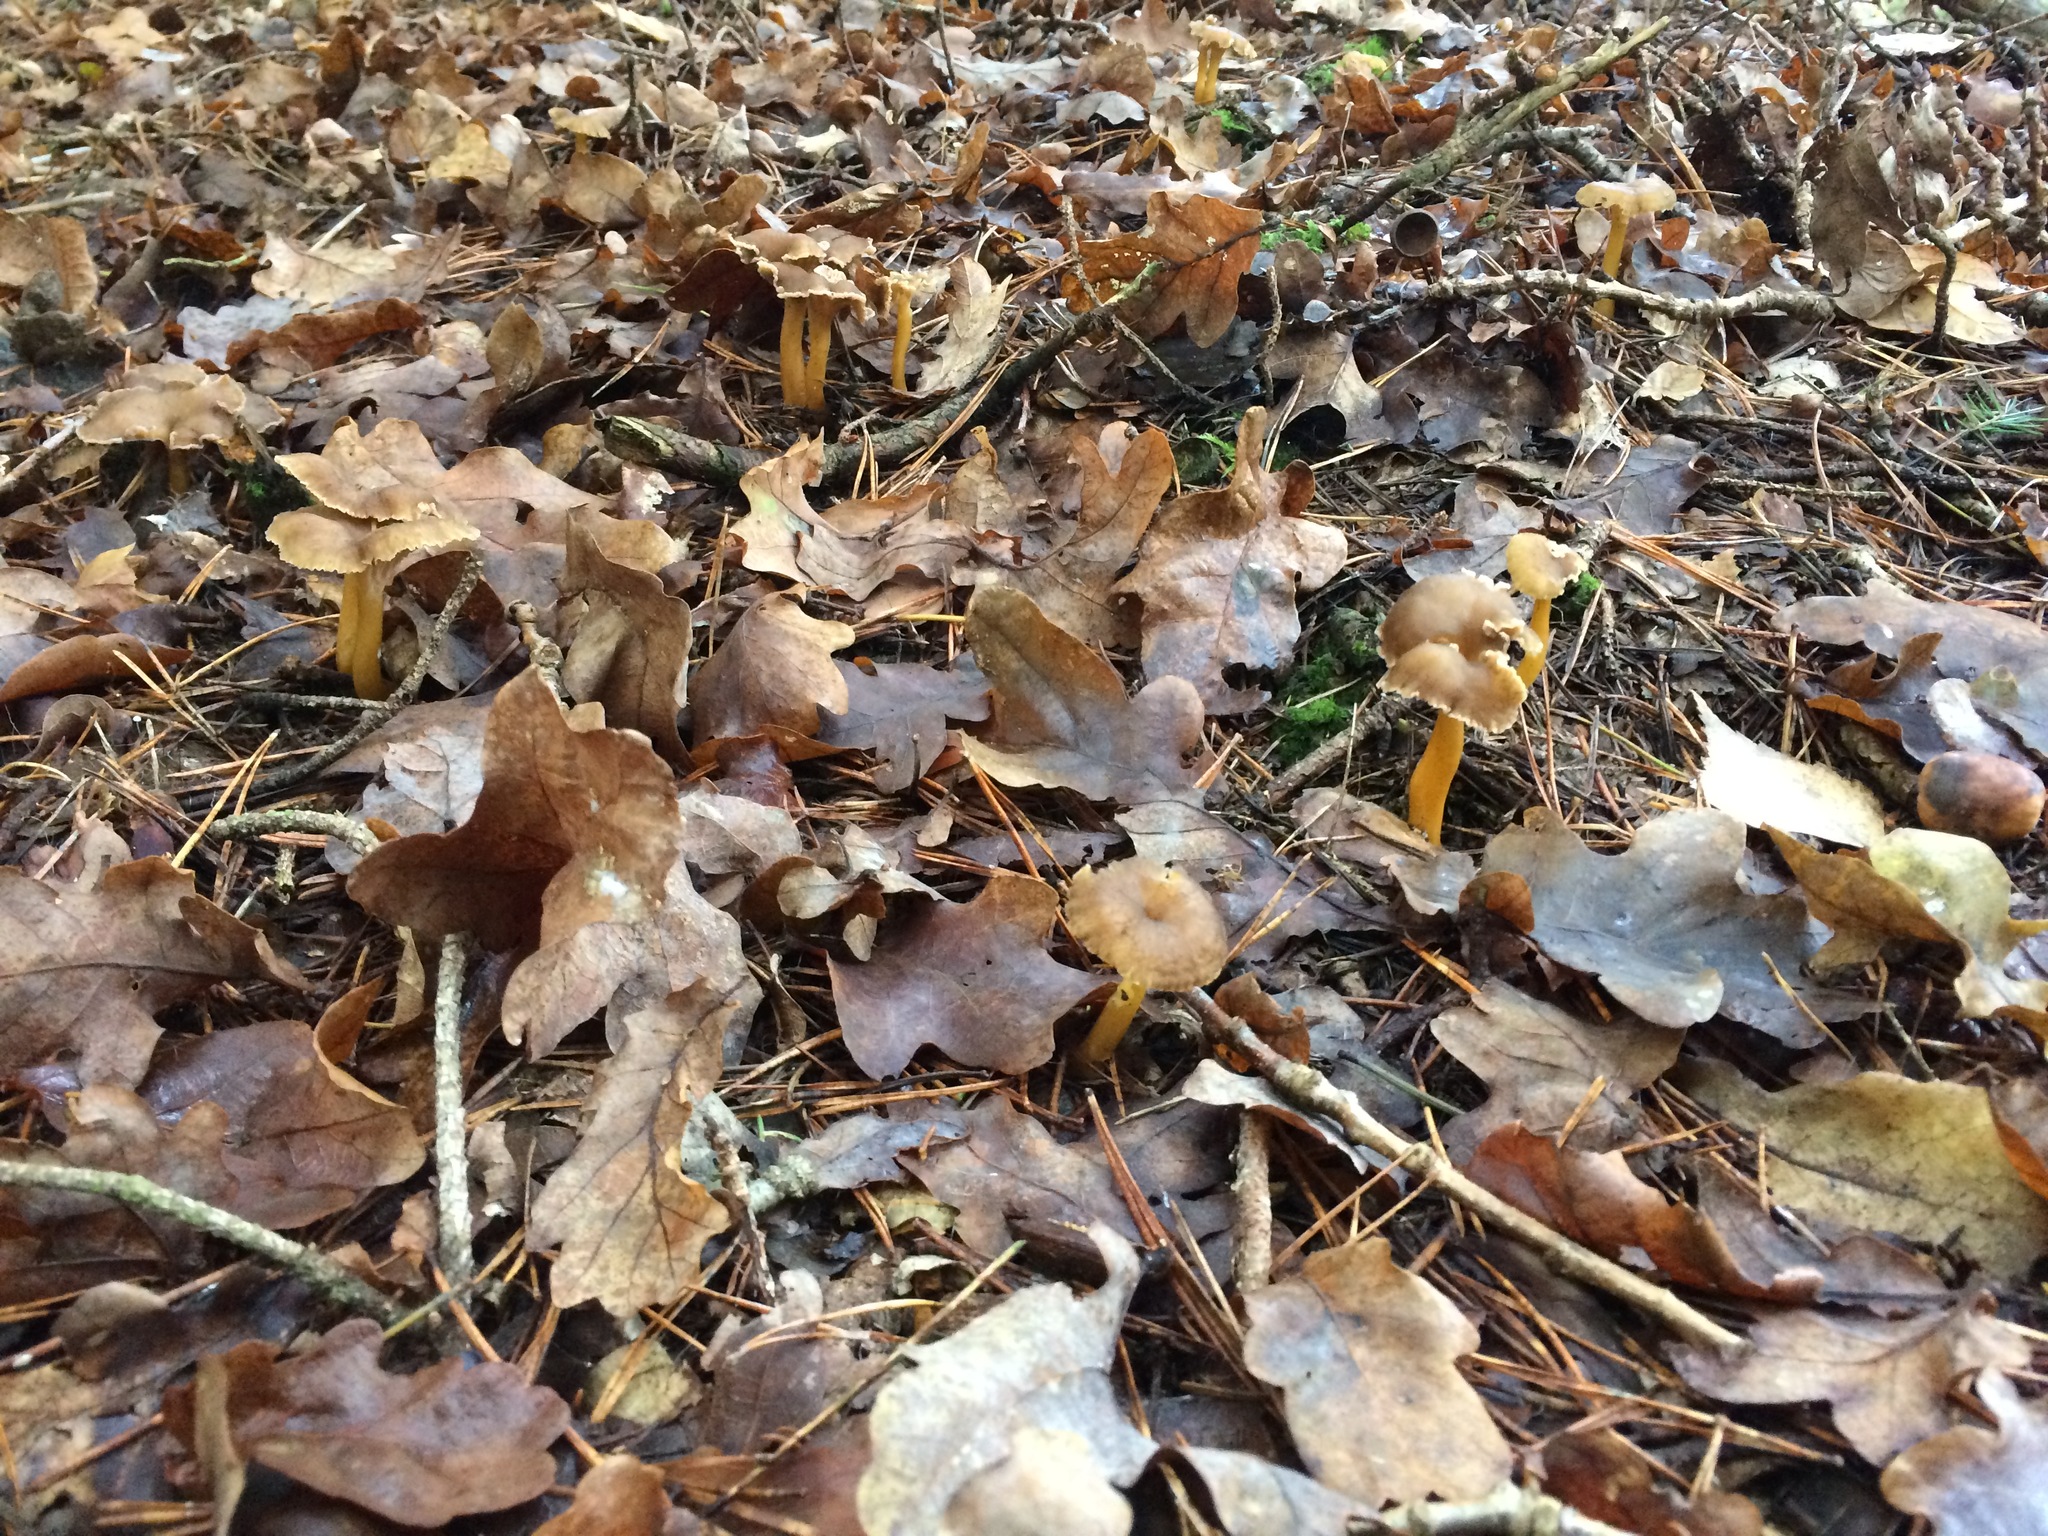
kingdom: Fungi
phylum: Basidiomycota
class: Agaricomycetes
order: Cantharellales
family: Hydnaceae
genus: Craterellus
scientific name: Craterellus tubaeformis
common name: Yellowfoot
